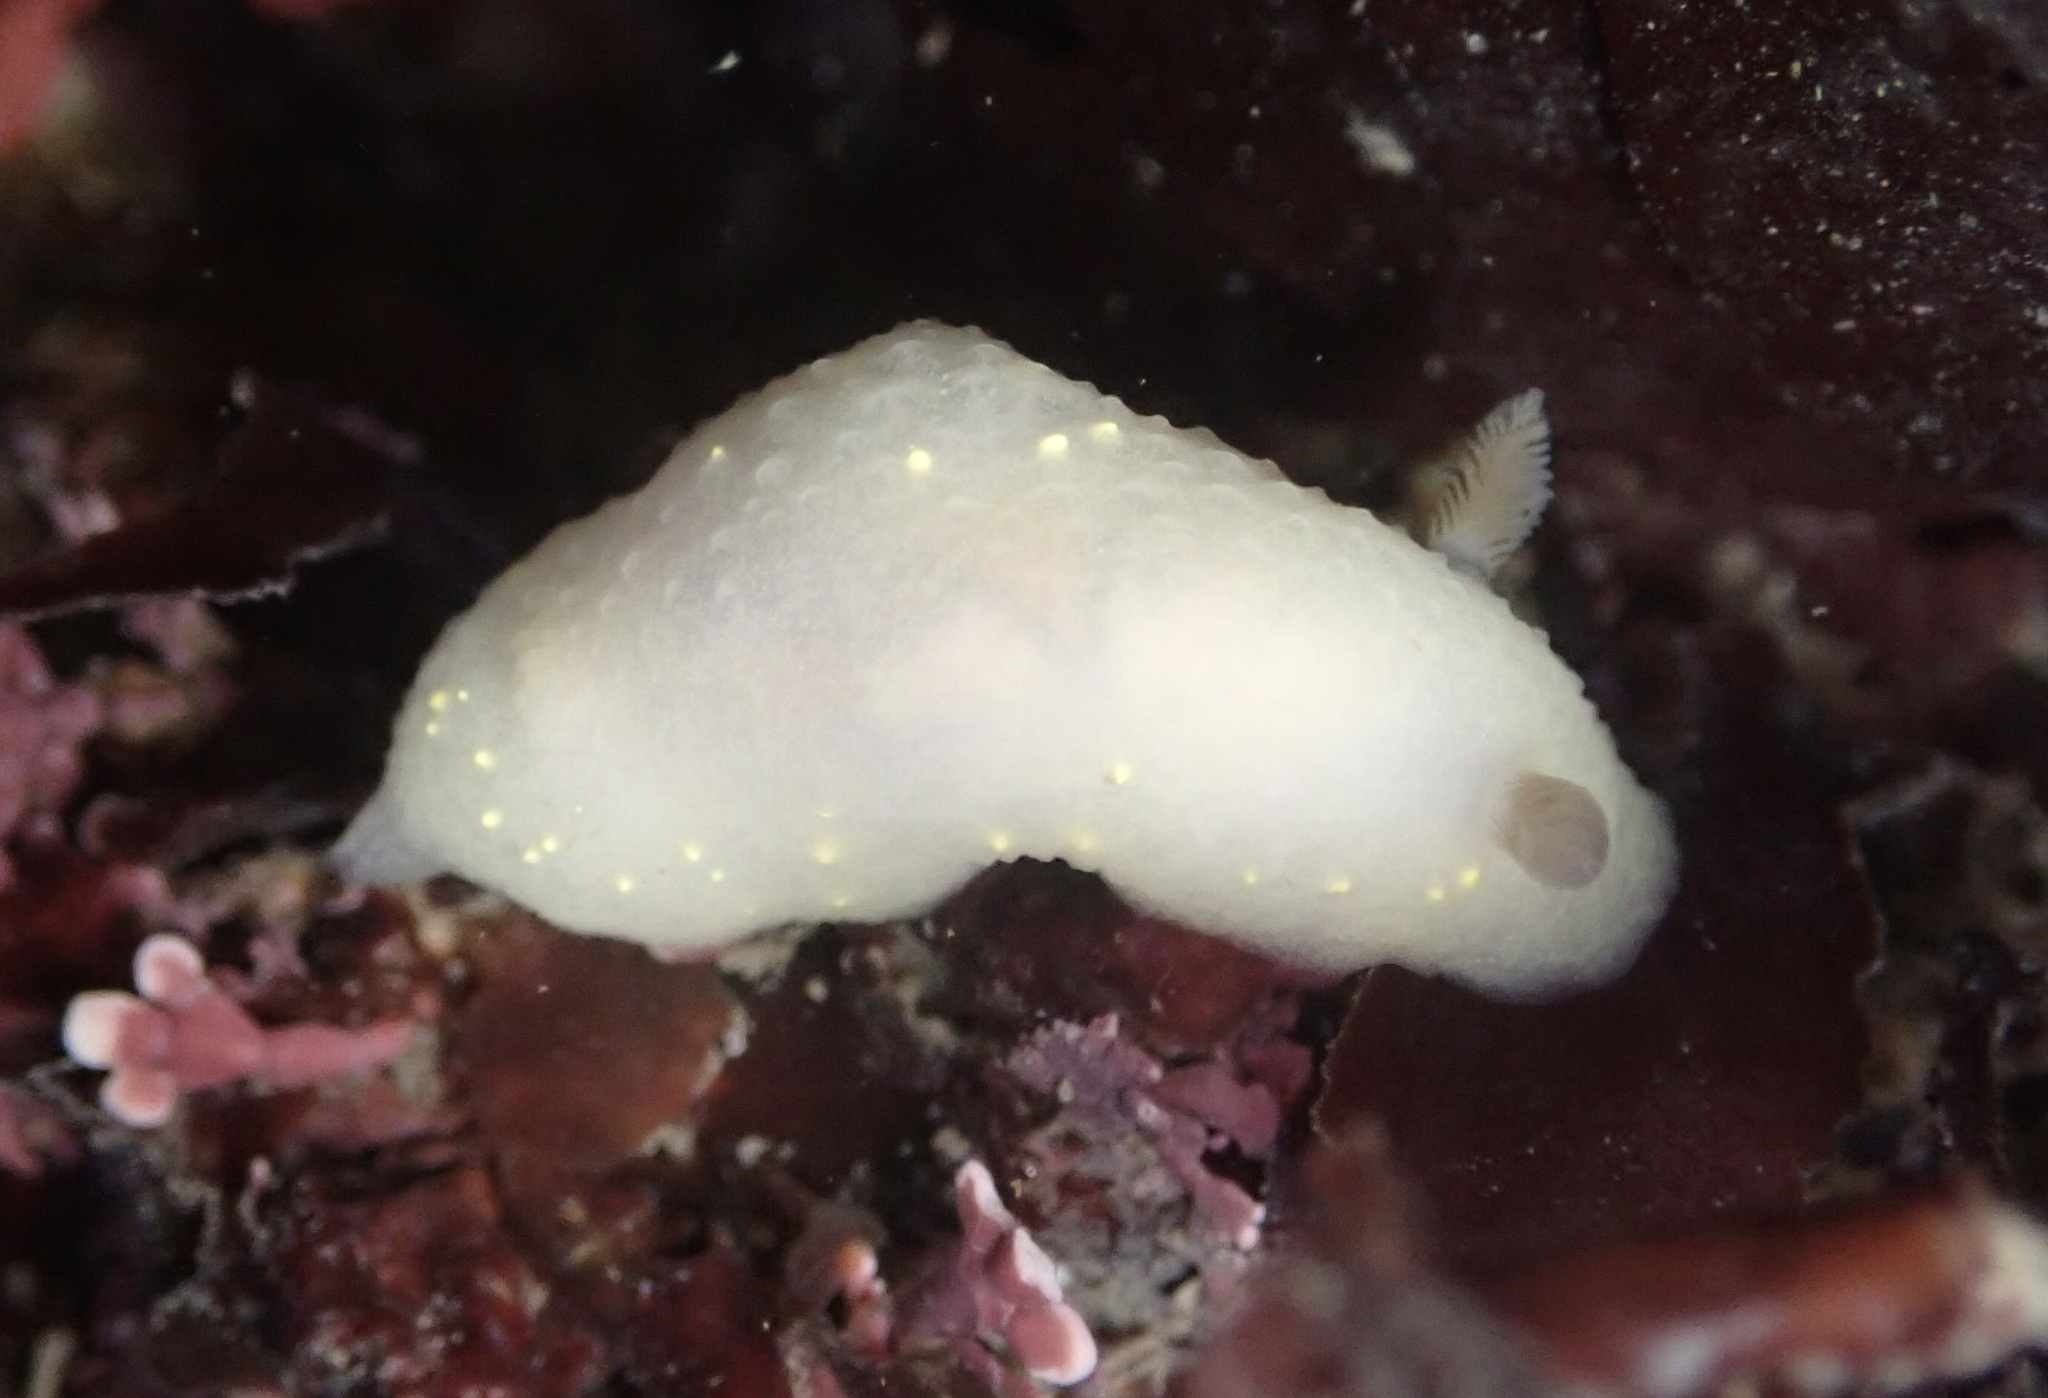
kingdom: Animalia
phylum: Mollusca
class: Gastropoda
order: Nudibranchia
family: Cadlinidae
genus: Cadlina
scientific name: Cadlina modesta
